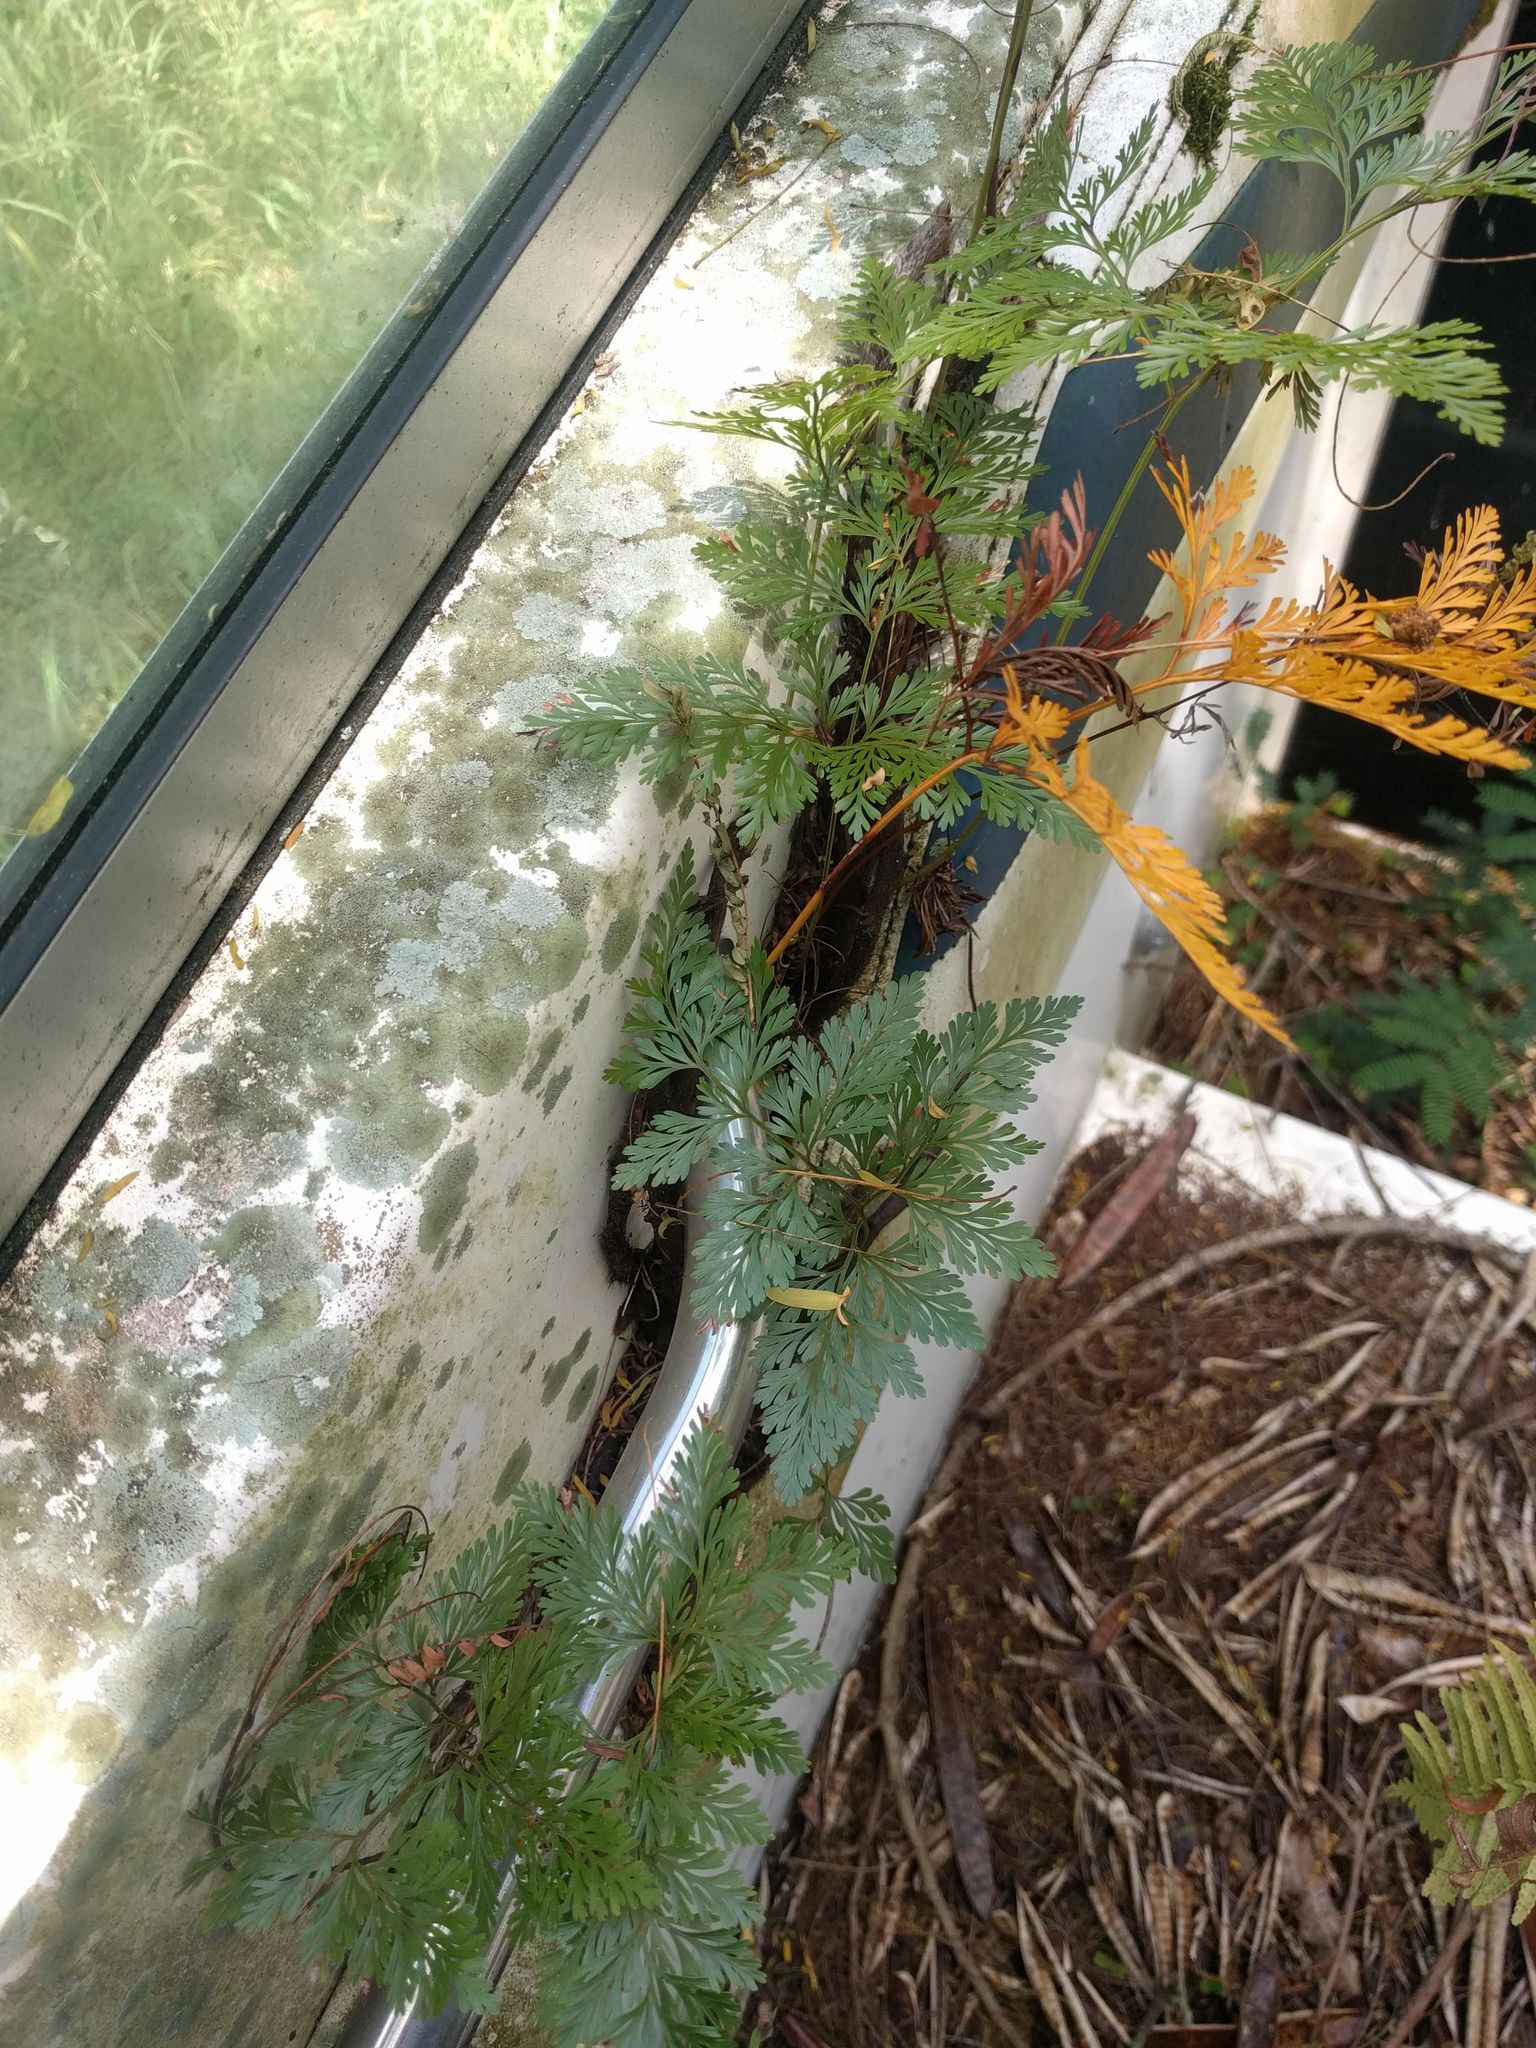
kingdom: Plantae
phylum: Tracheophyta
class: Polypodiopsida
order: Polypodiales
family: Davalliaceae
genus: Davallia
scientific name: Davallia fejeensis
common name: Lacy hare's-foot fern
